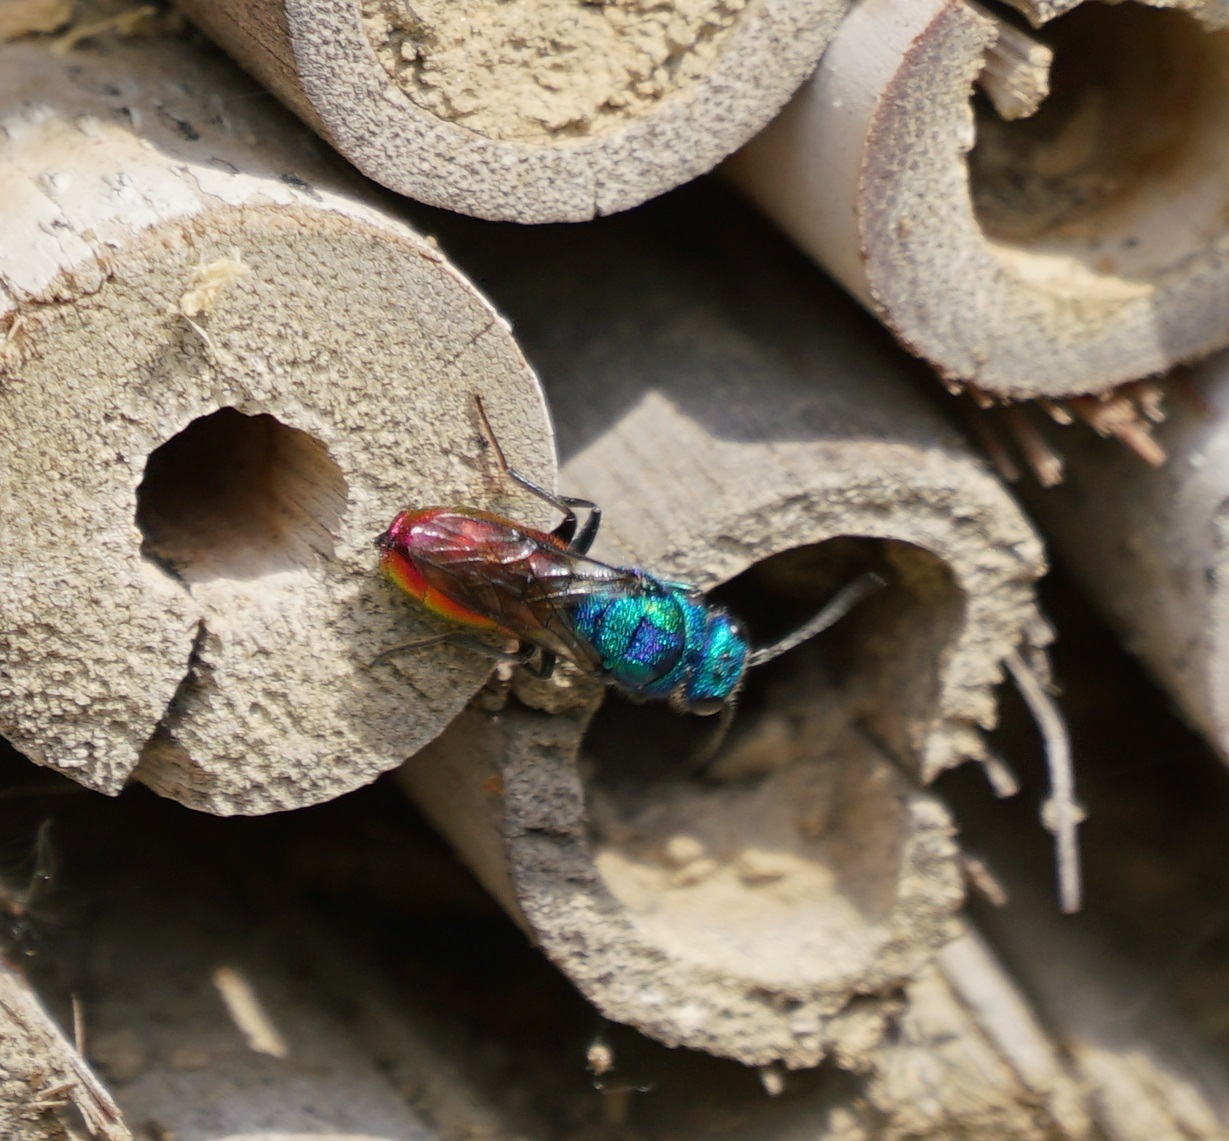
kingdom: Animalia
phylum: Arthropoda
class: Insecta
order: Hymenoptera
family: Chrysididae
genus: Chrysura
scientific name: Chrysura austriaca
